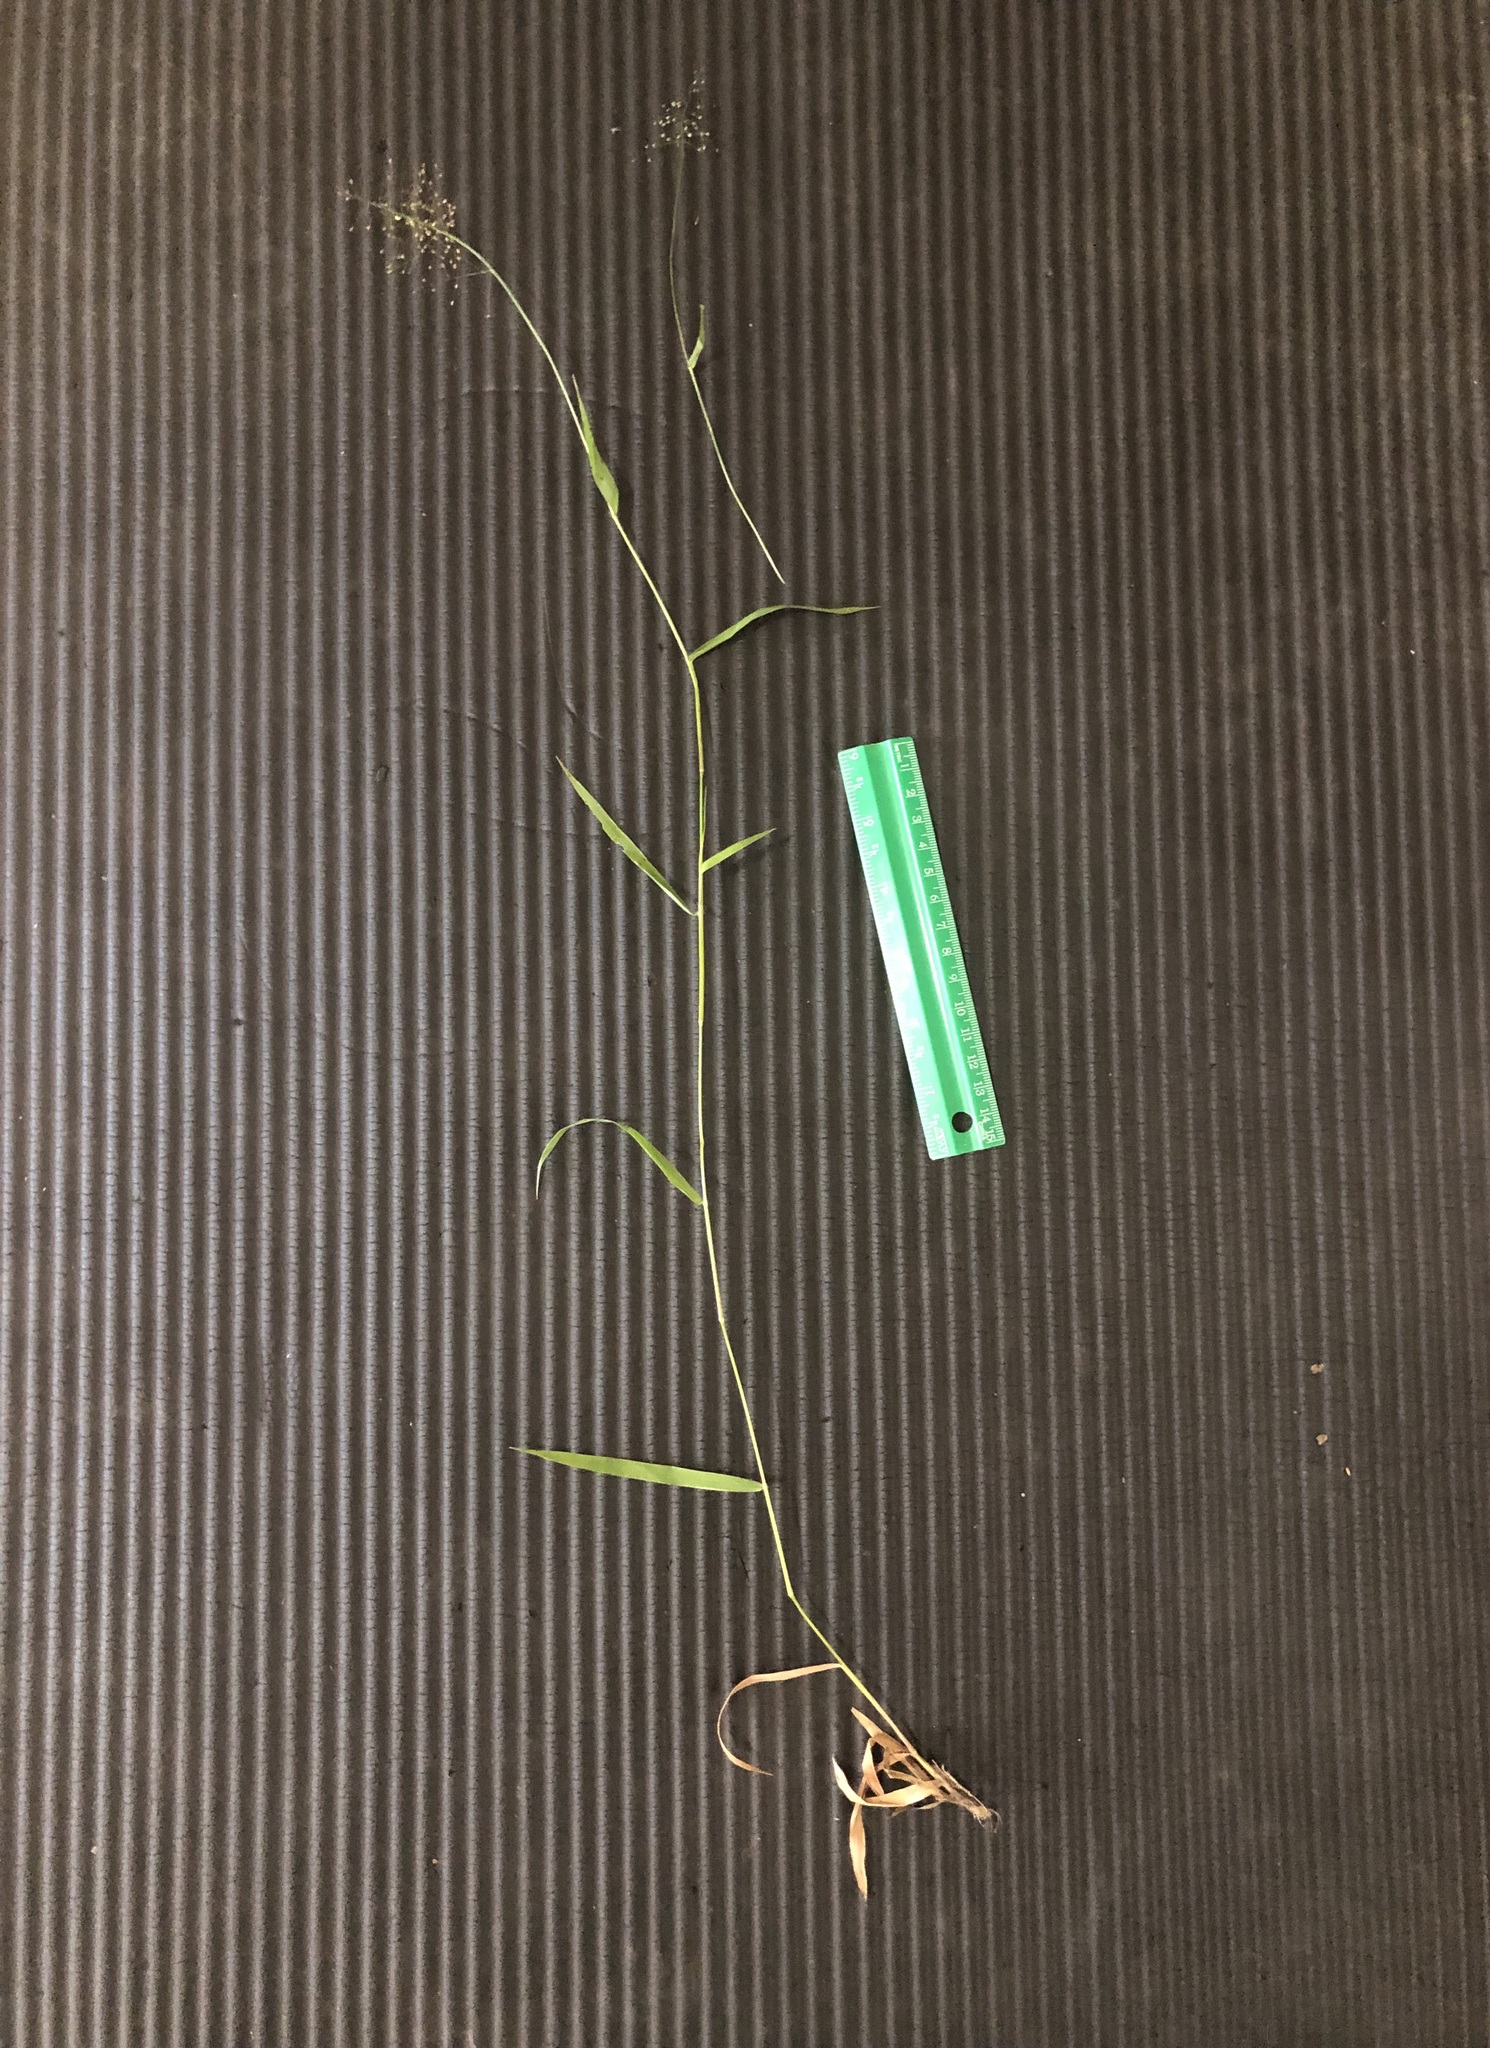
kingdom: Plantae
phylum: Tracheophyta
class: Liliopsida
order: Poales
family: Poaceae
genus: Dichanthelium
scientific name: Dichanthelium lindheimeri
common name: Lindheimer's panicgrass
